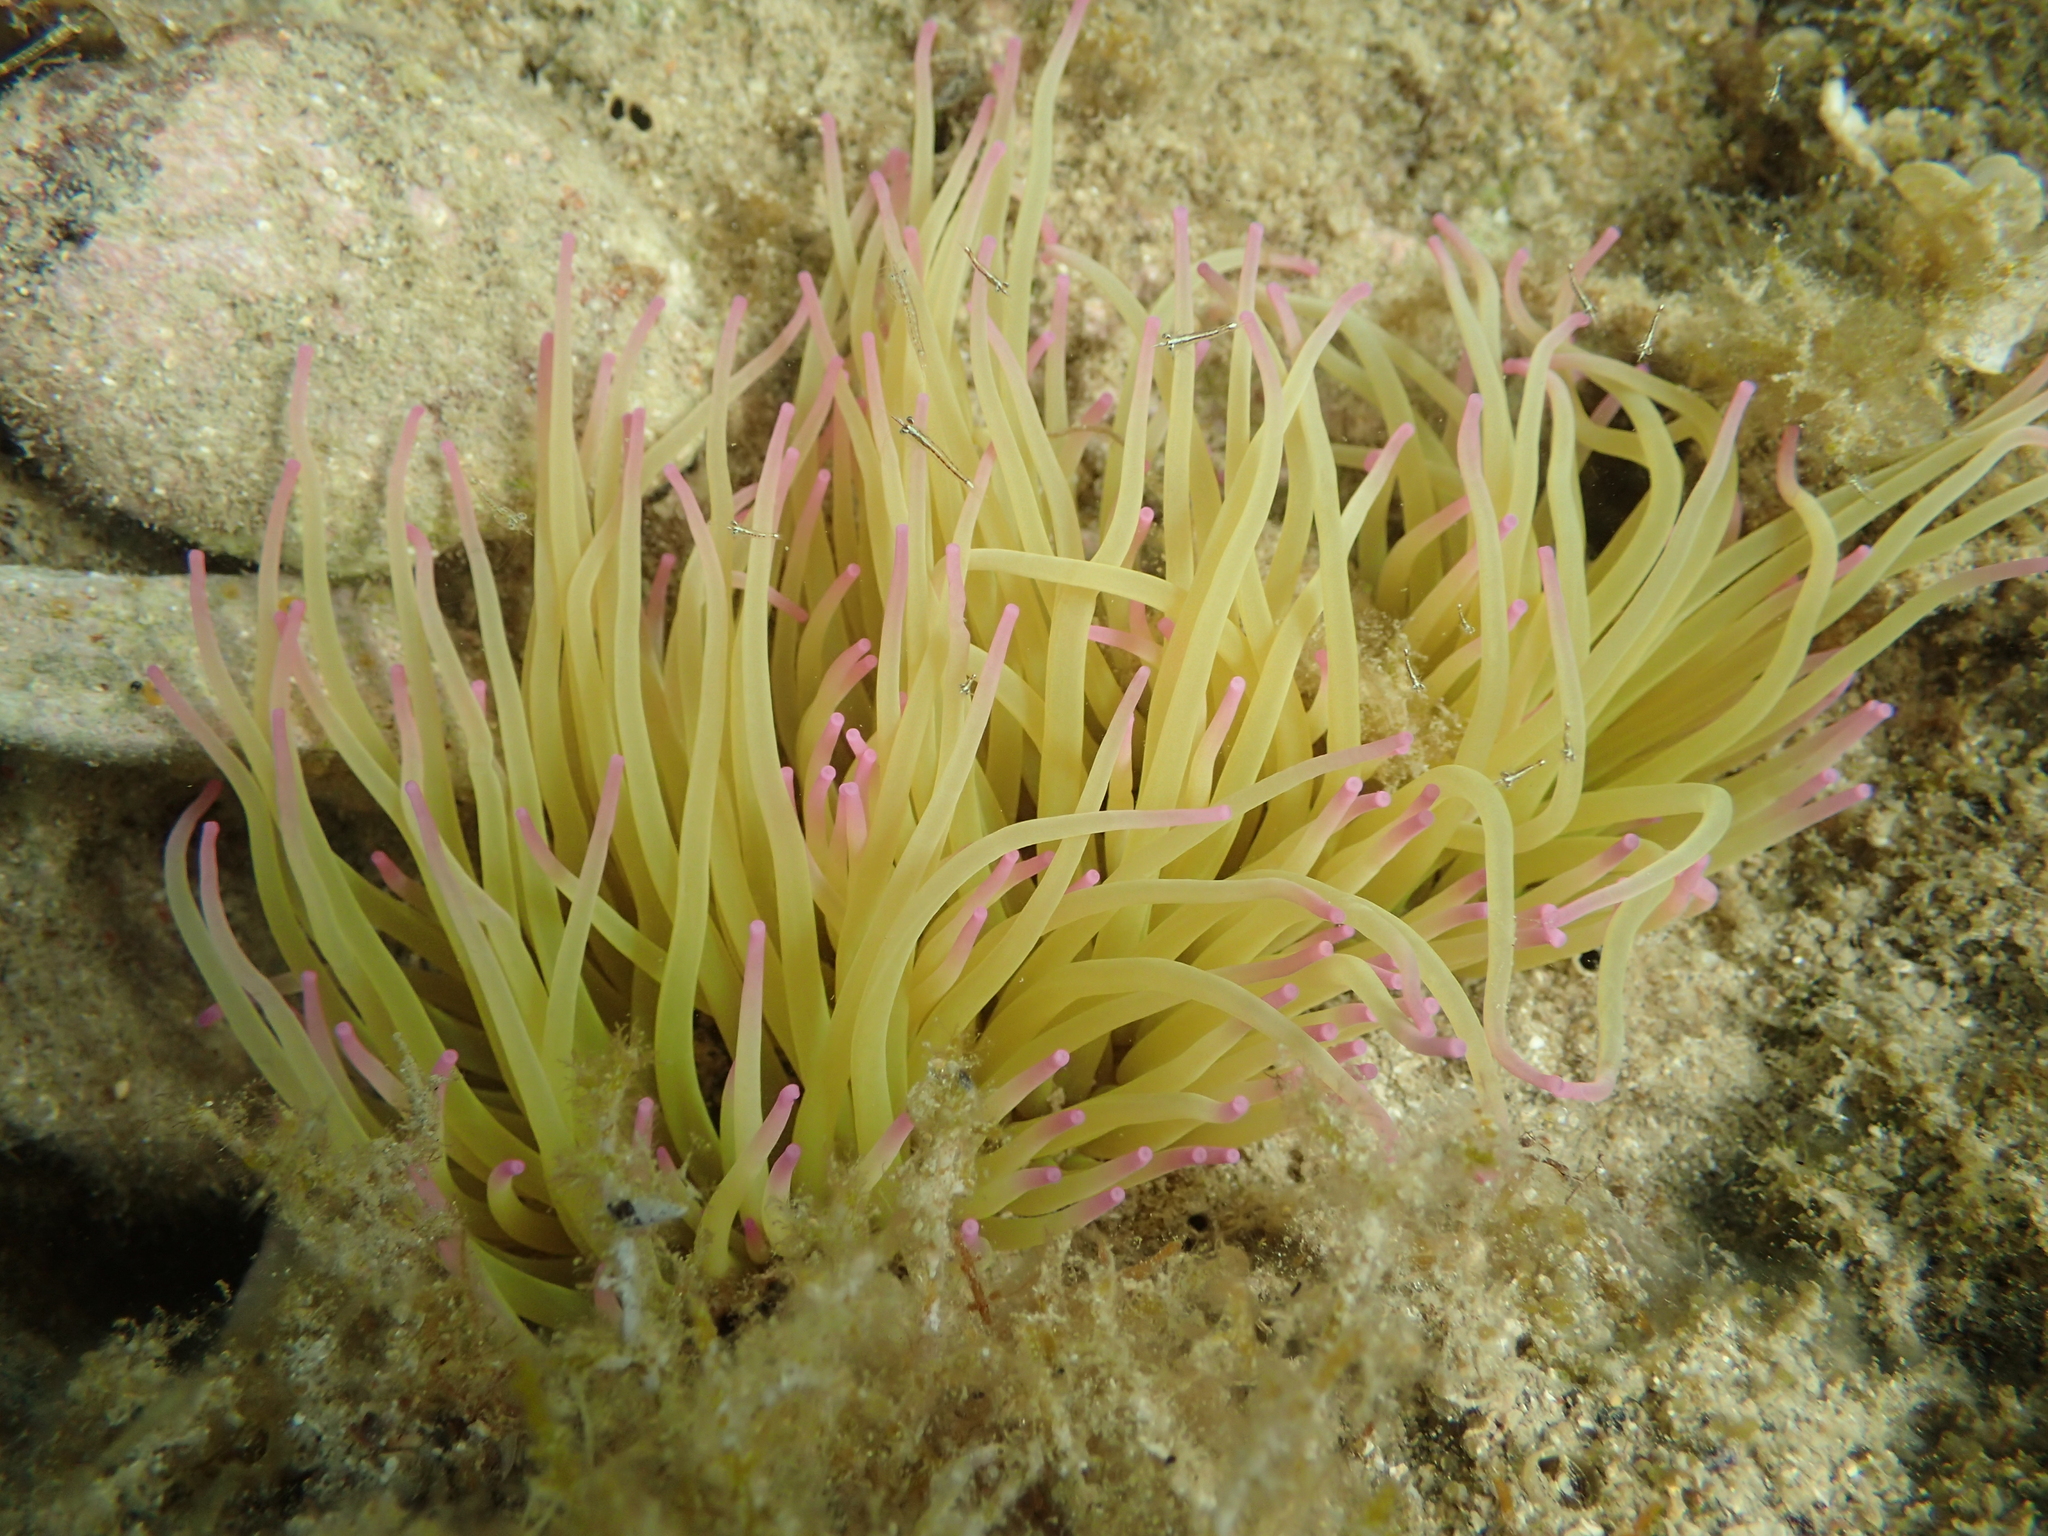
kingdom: Animalia
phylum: Cnidaria
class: Anthozoa
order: Actiniaria
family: Actiniidae
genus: Anemonia
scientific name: Anemonia viridis
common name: Snakelocks anemone
